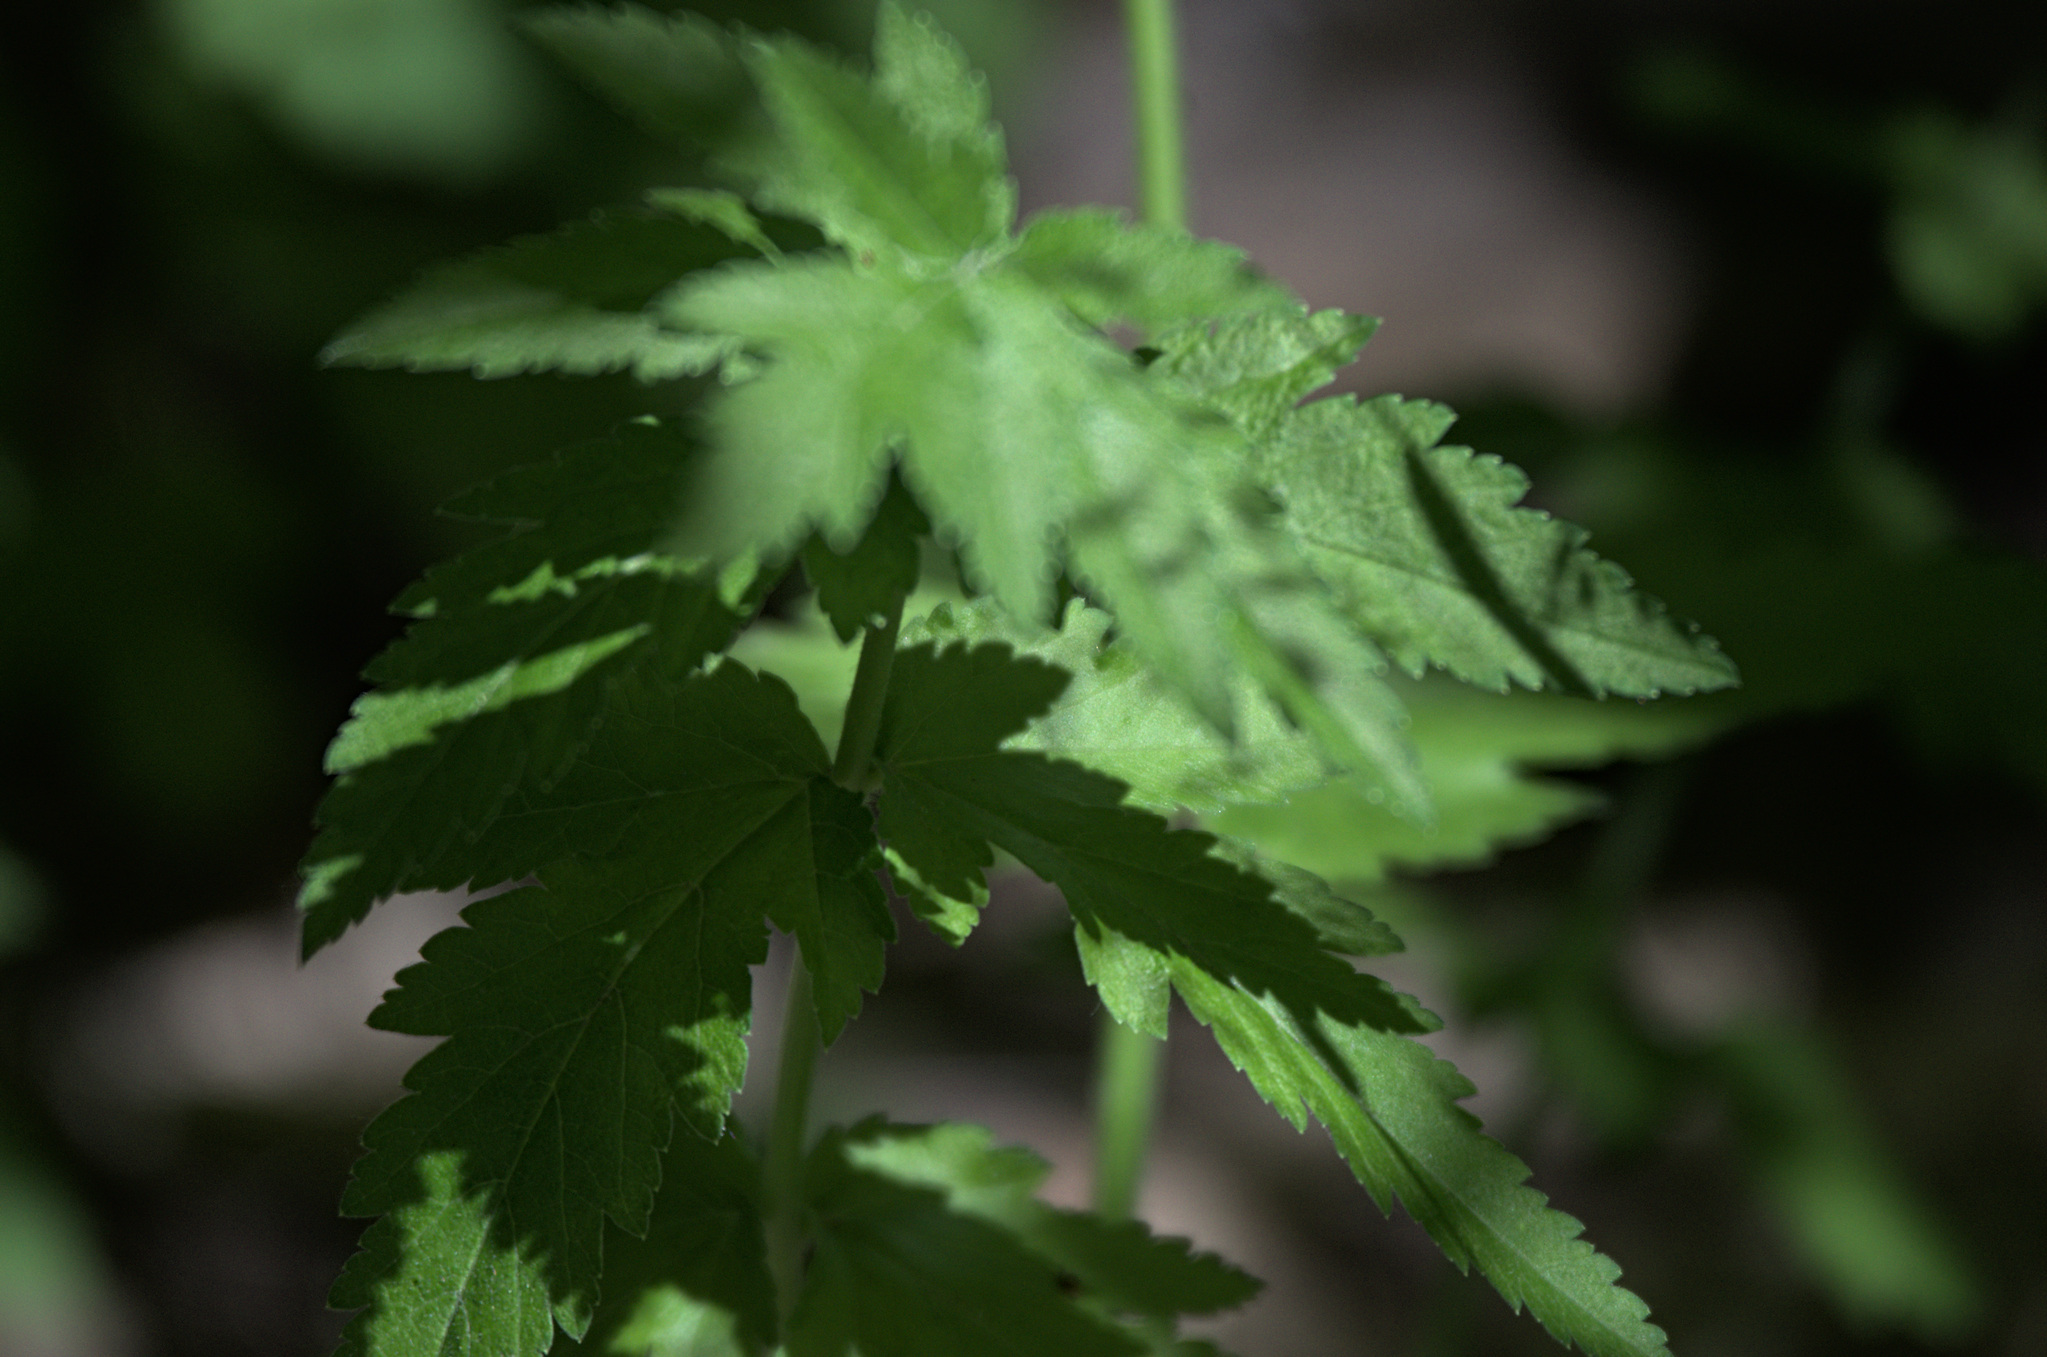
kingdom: Plantae
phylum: Tracheophyta
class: Magnoliopsida
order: Apiales
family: Apiaceae
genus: Pastinaca
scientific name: Pastinaca sativa
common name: Wild parsnip
